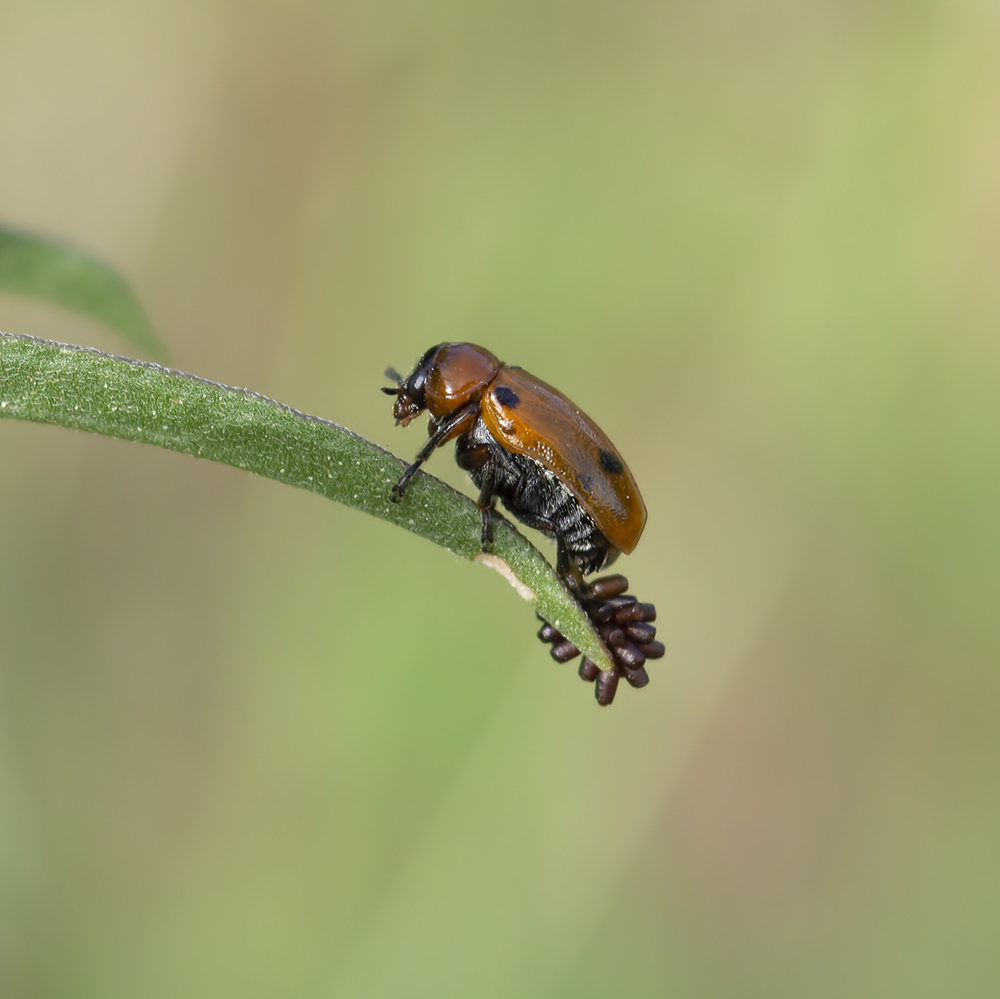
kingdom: Animalia
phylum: Arthropoda
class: Insecta
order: Coleoptera
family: Chrysomelidae
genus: Macrolenes
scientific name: Macrolenes dentipes
